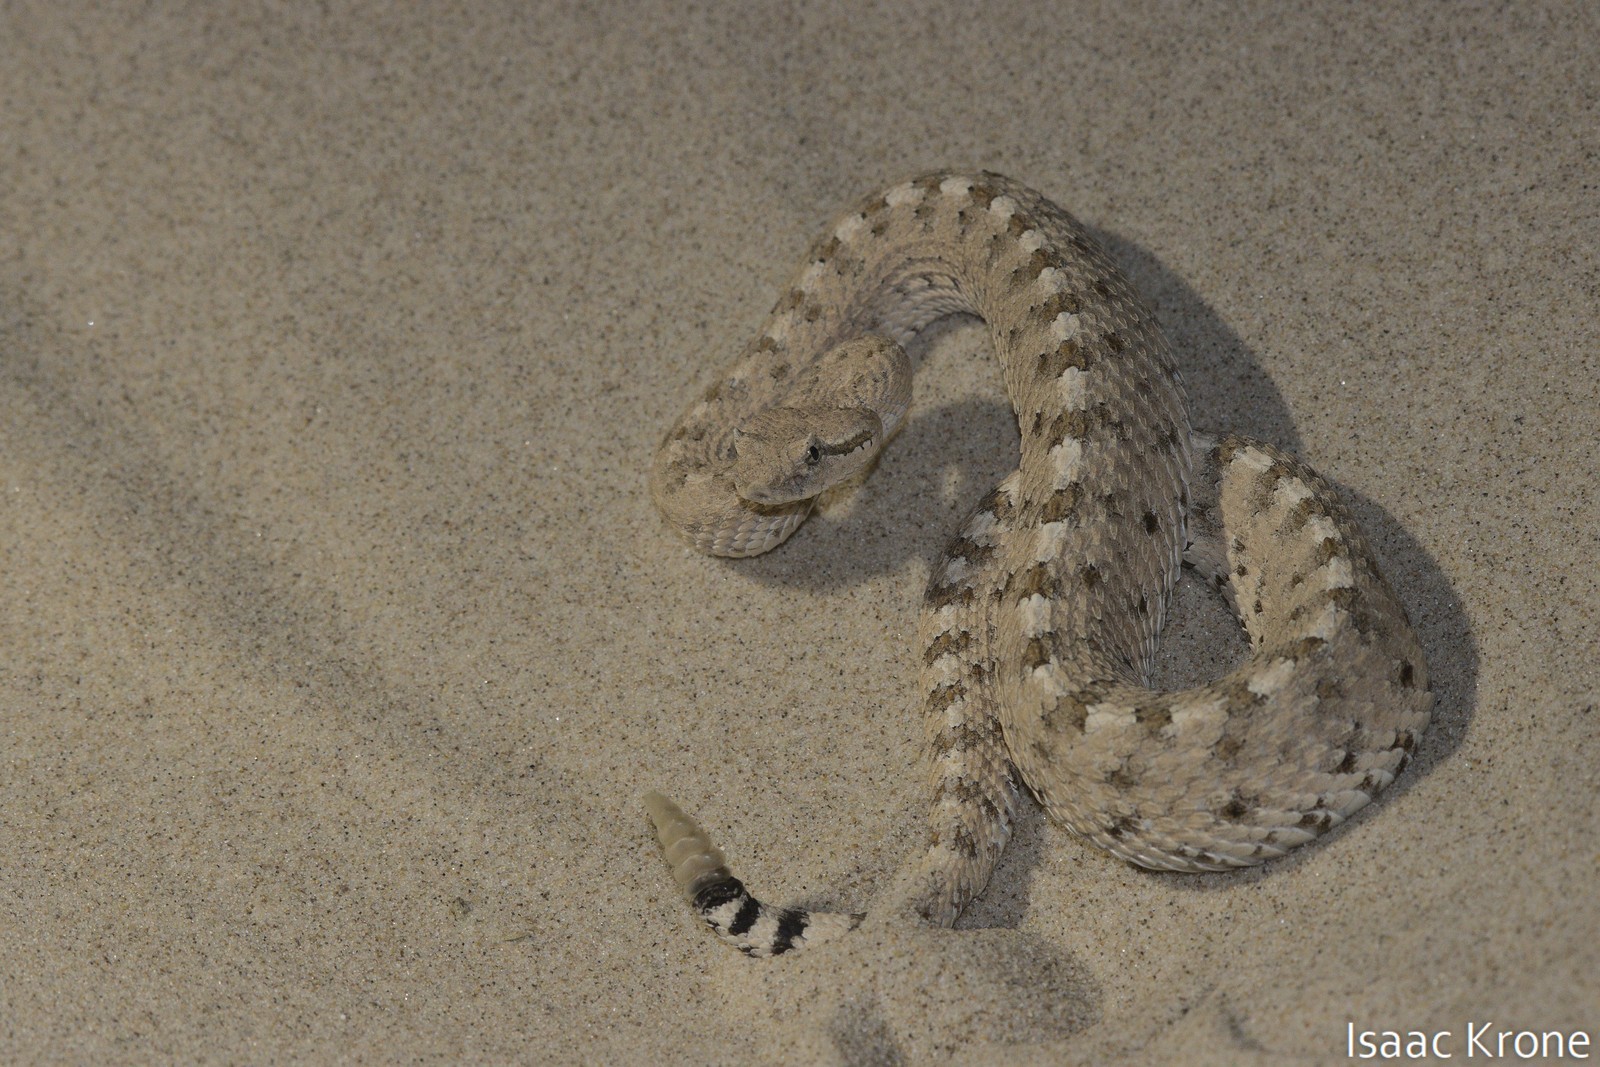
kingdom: Animalia
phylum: Chordata
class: Squamata
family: Viperidae
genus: Crotalus
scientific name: Crotalus cerastes
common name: Sidewinder
